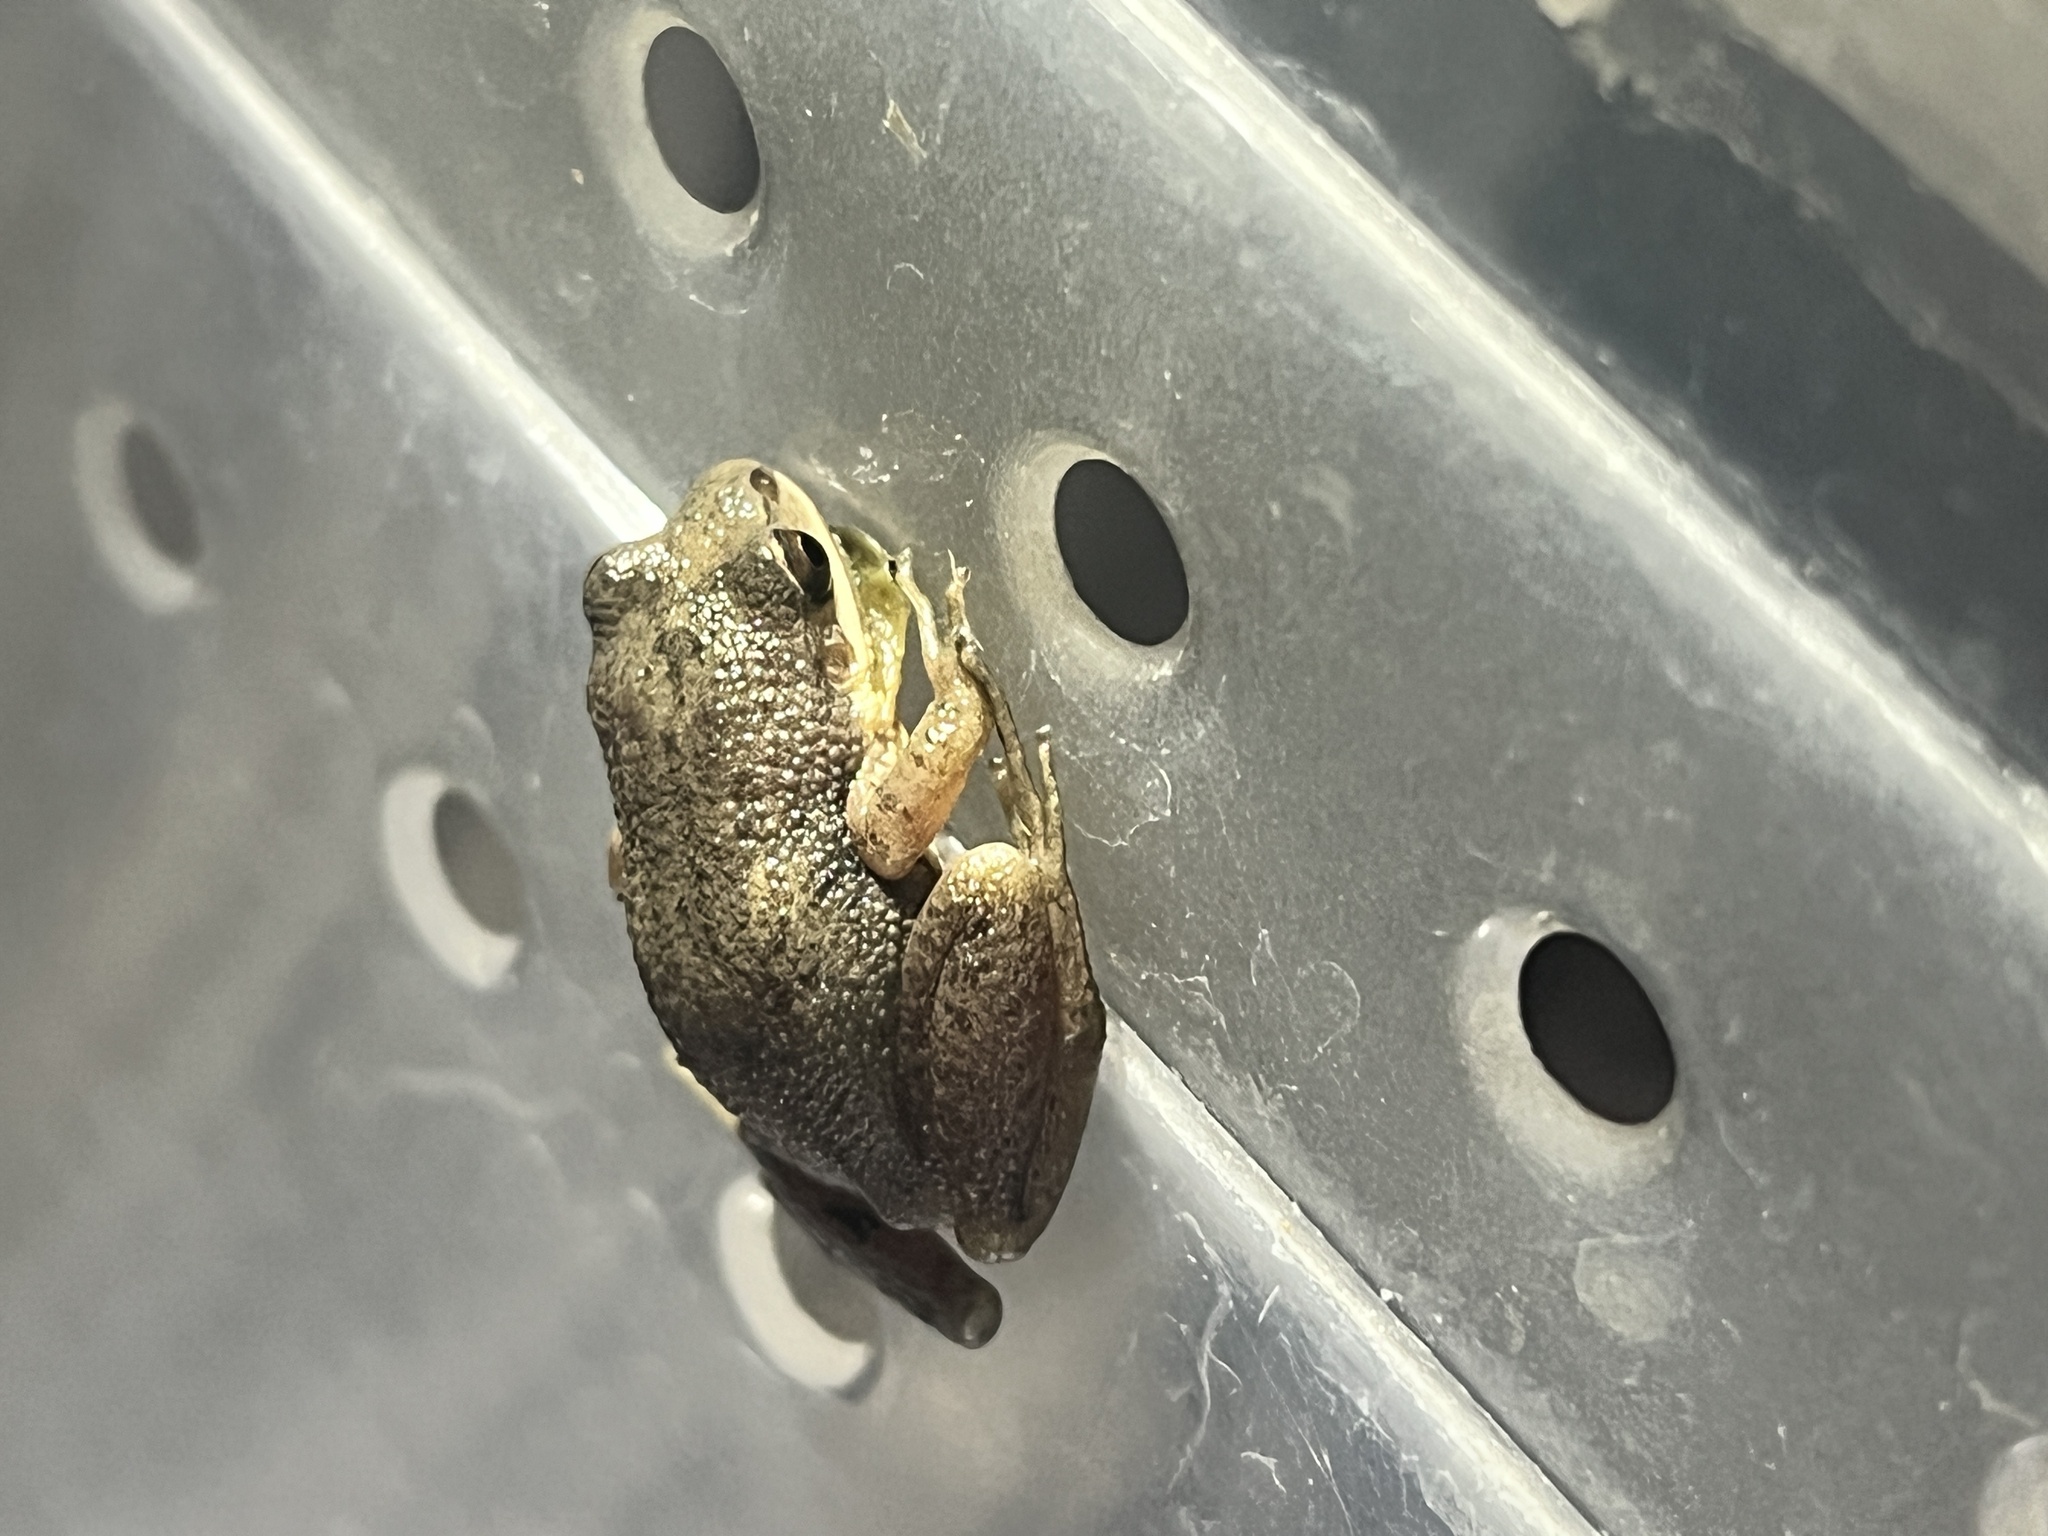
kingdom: Animalia
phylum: Chordata
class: Amphibia
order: Anura
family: Hylidae
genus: Pseudacris
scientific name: Pseudacris feriarum
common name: Upland chorus frog
